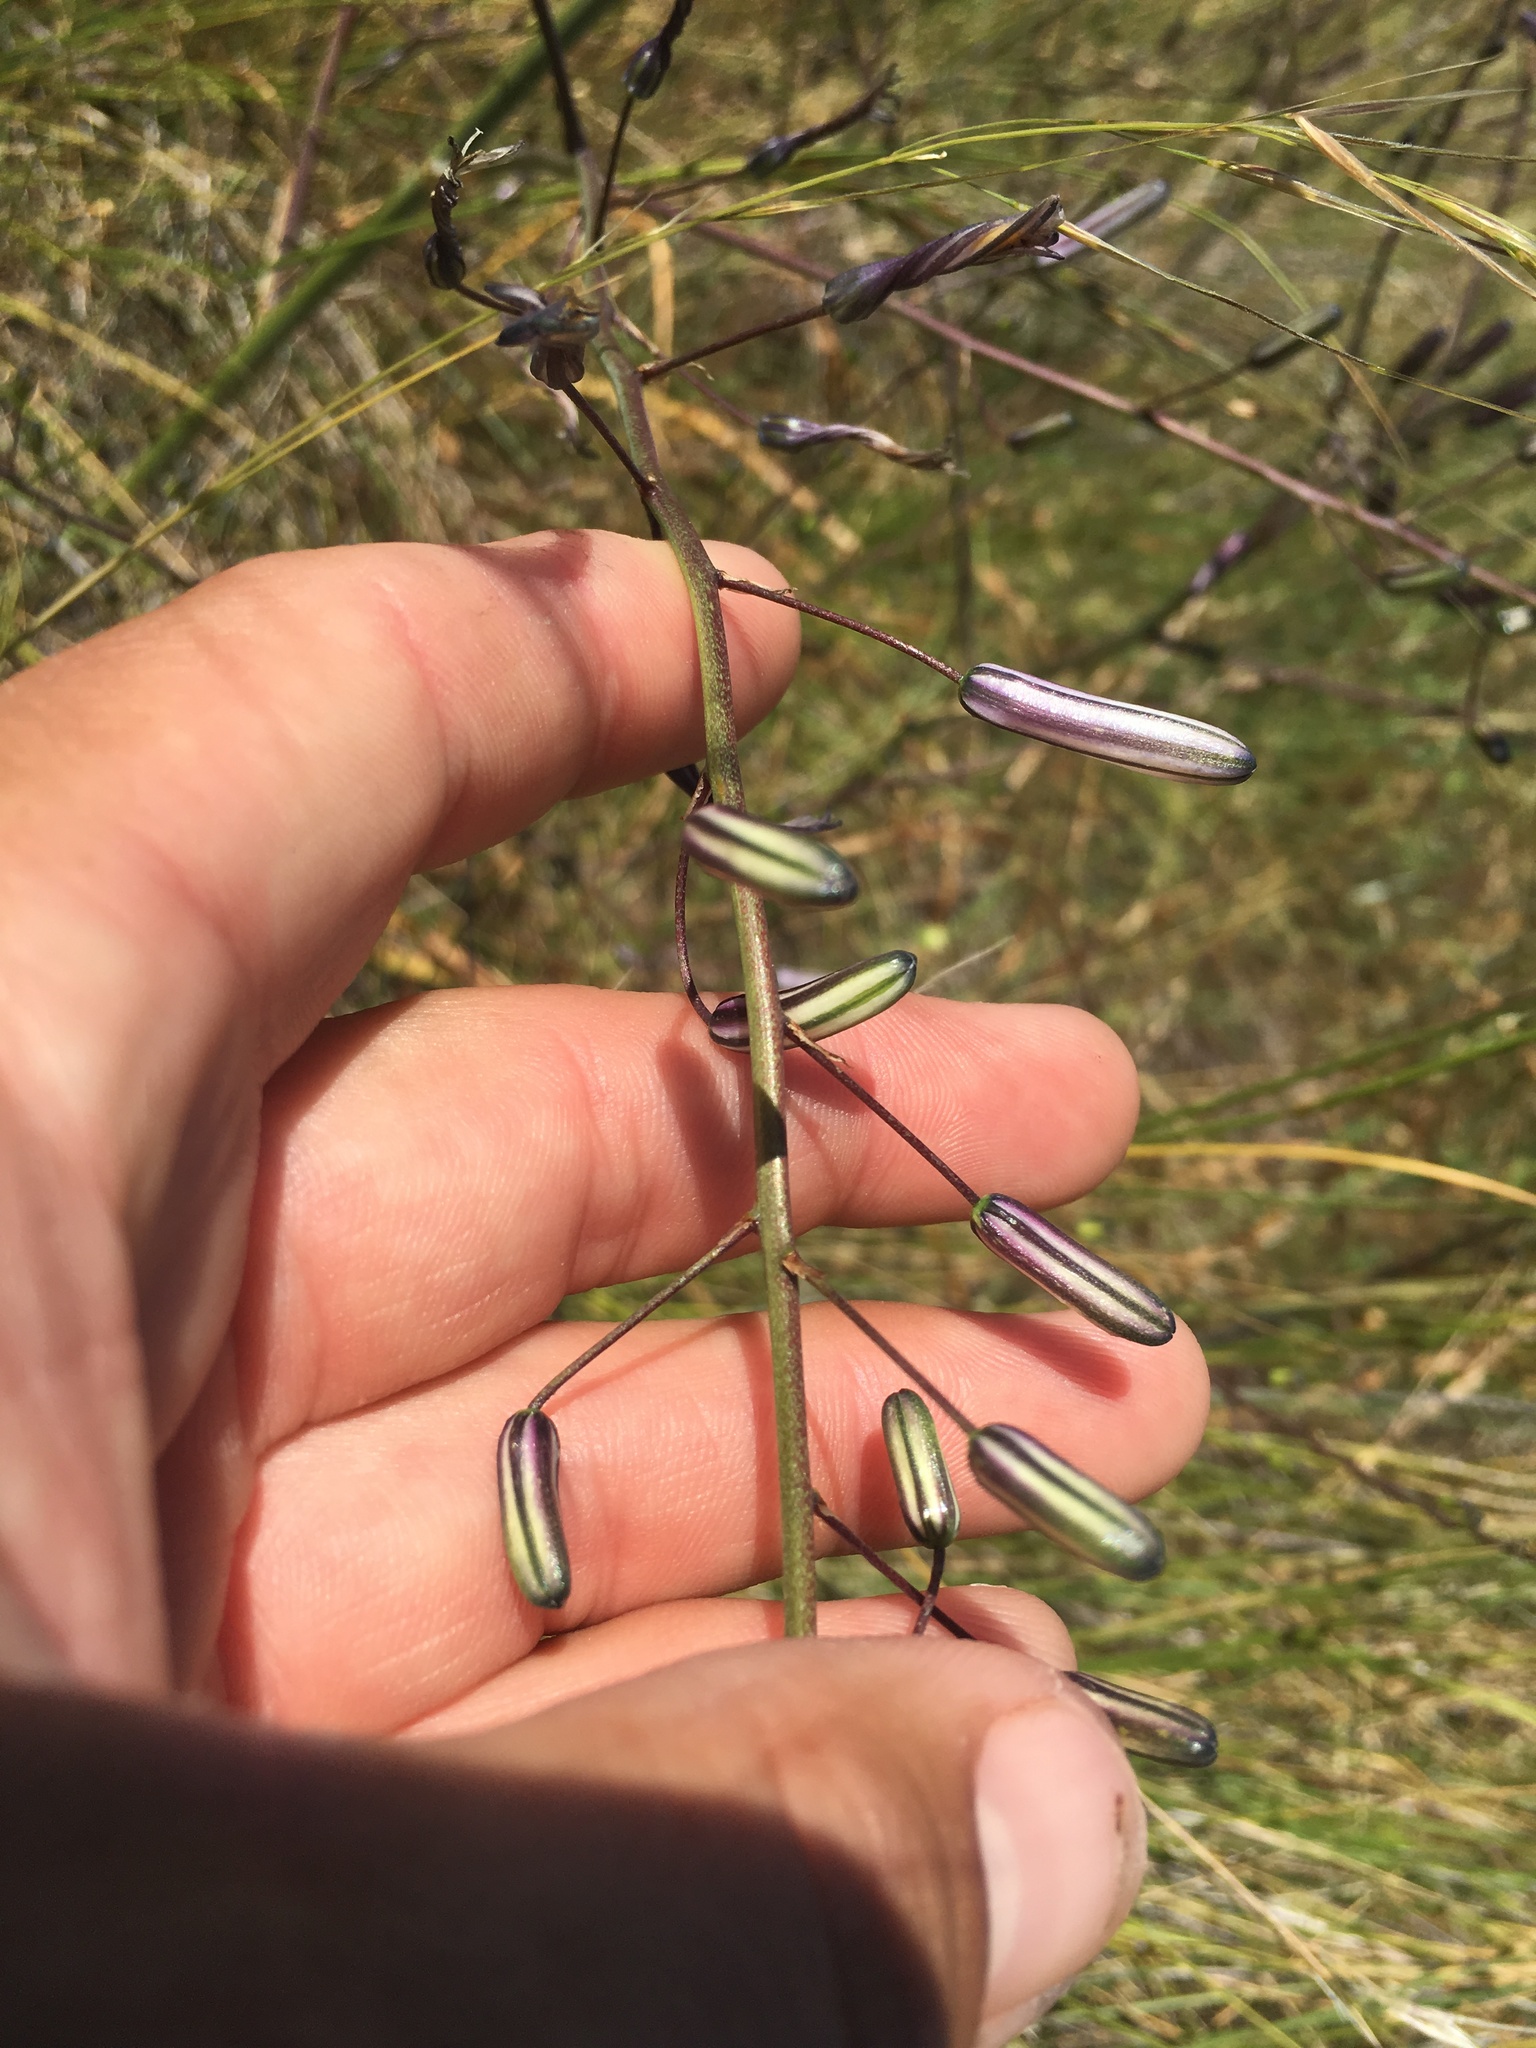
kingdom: Plantae
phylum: Tracheophyta
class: Liliopsida
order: Asparagales
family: Asparagaceae
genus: Chlorogalum
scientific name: Chlorogalum pomeridianum
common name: Amole
